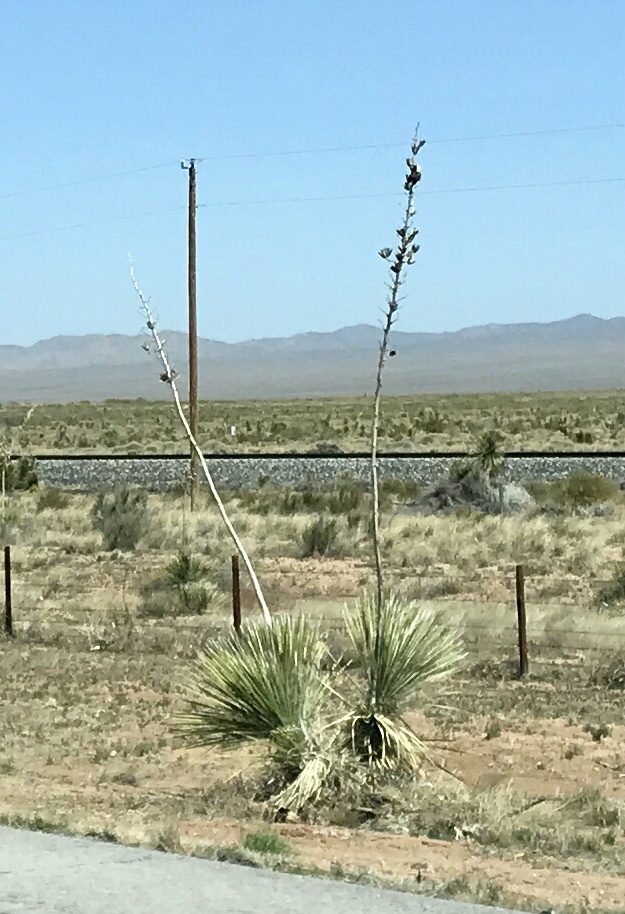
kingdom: Plantae
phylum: Tracheophyta
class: Liliopsida
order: Asparagales
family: Asparagaceae
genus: Yucca
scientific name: Yucca elata
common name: Palmella
